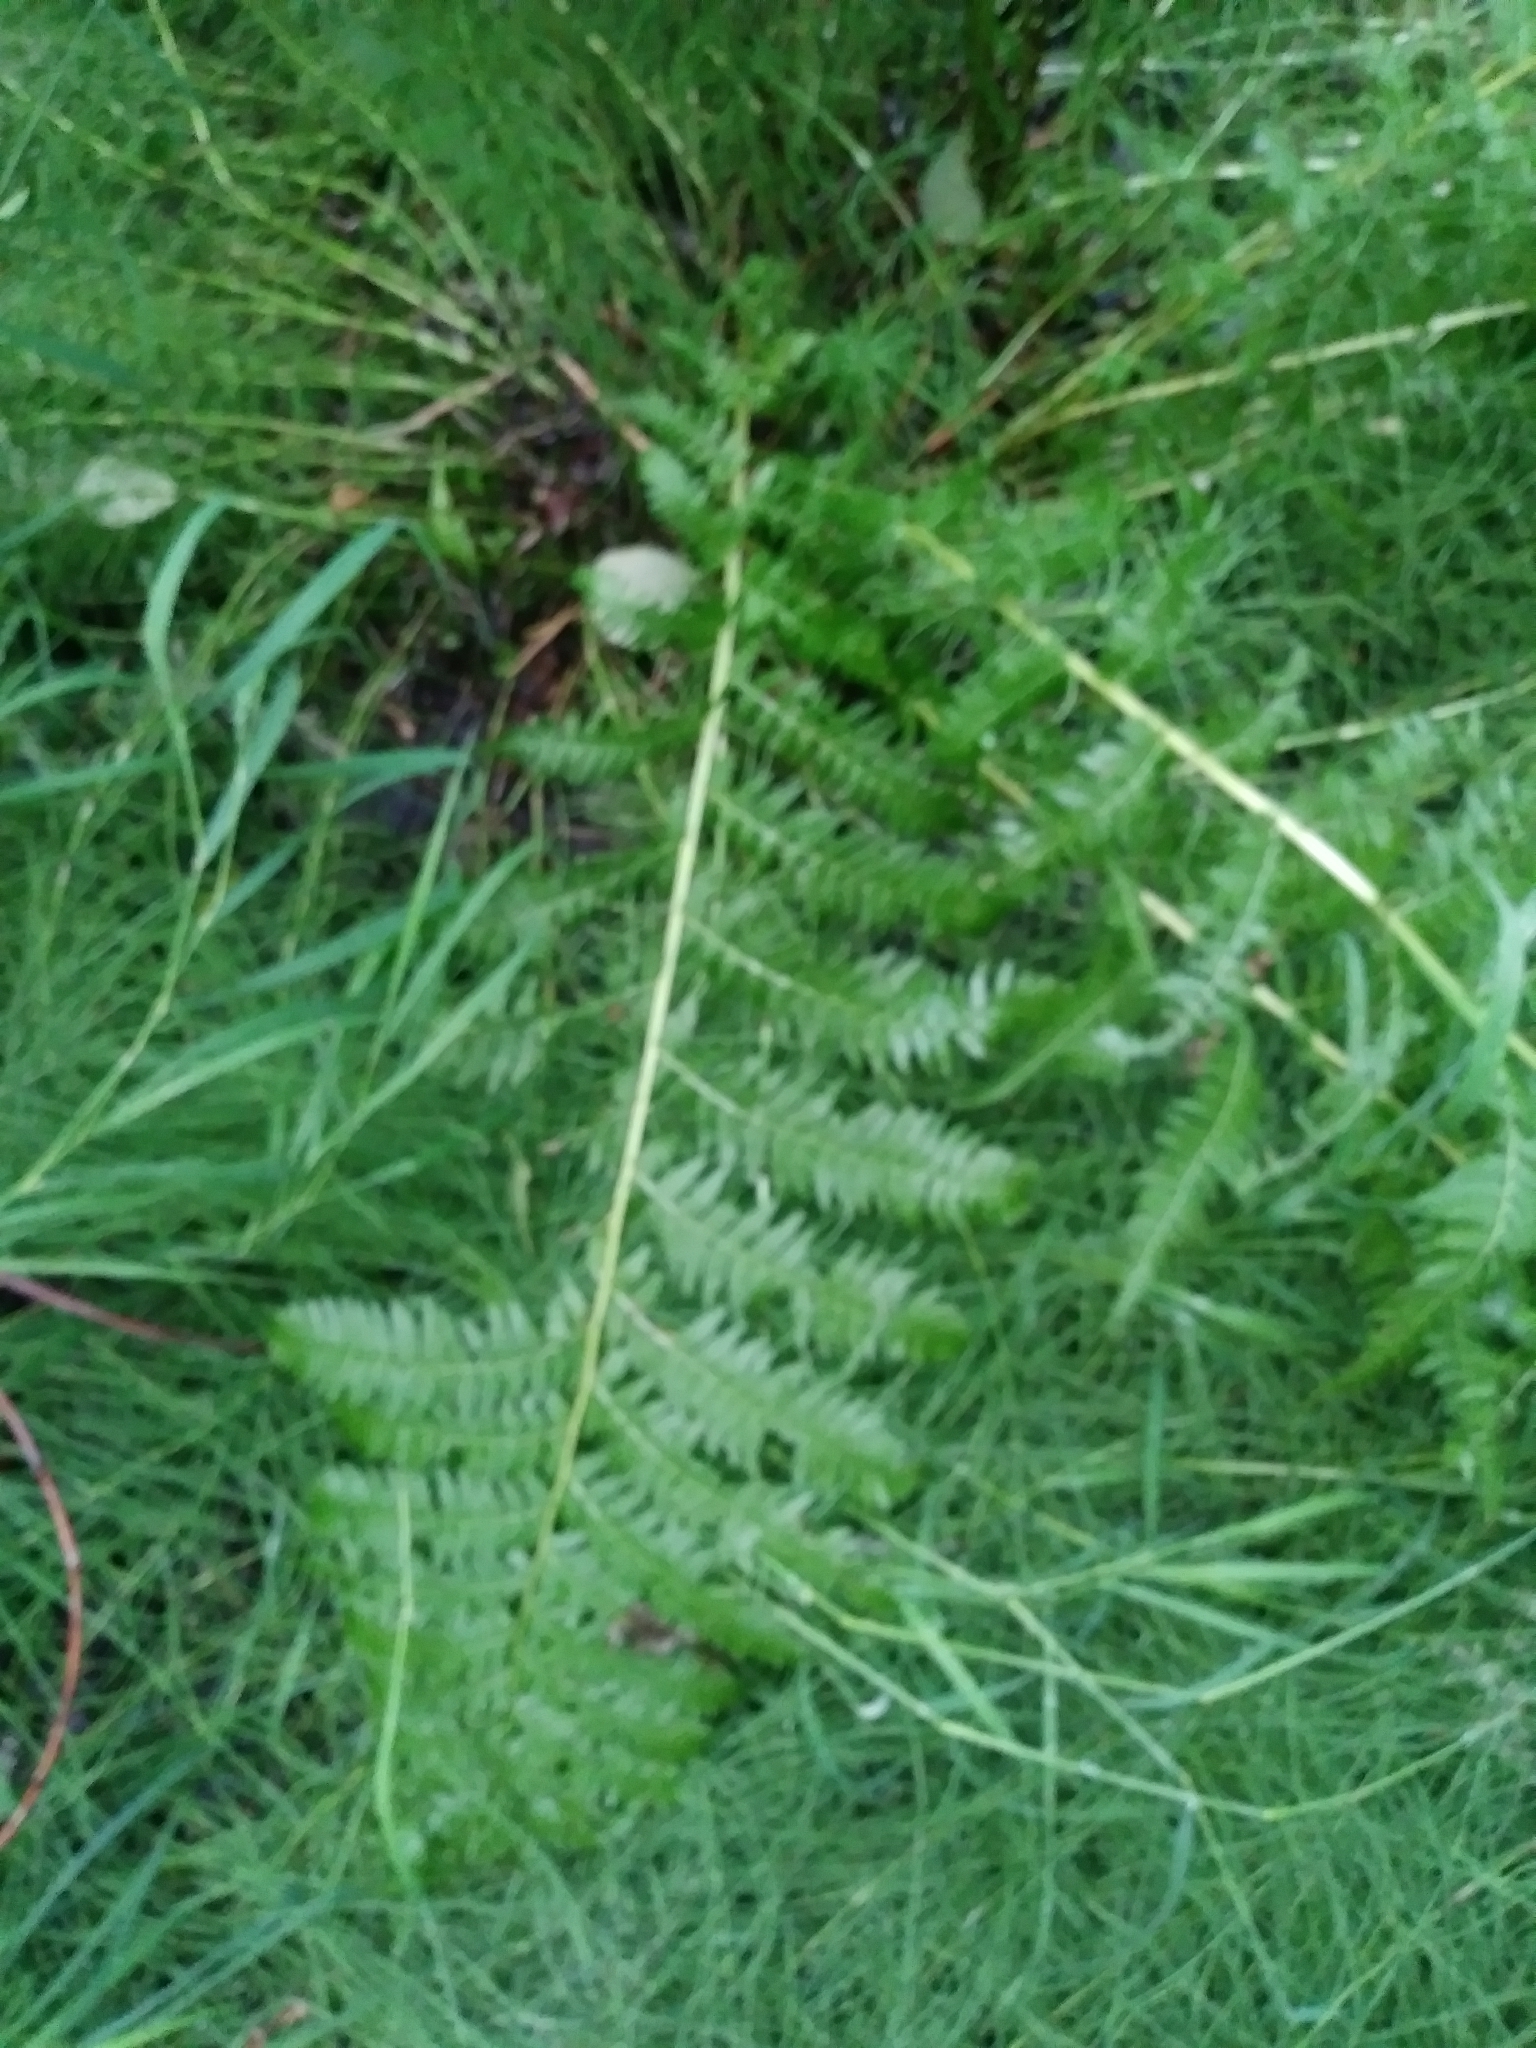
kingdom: Plantae
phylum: Tracheophyta
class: Polypodiopsida
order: Polypodiales
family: Athyriaceae
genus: Athyrium
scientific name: Athyrium cyclosorum
